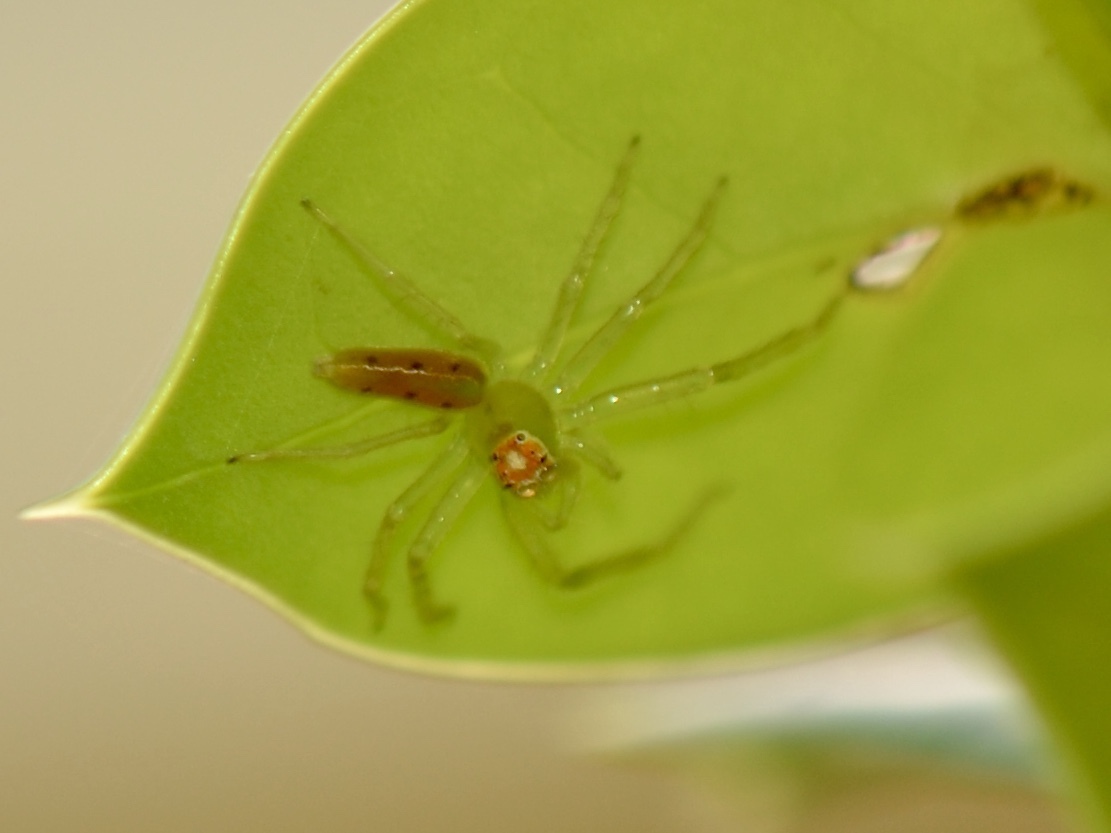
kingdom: Animalia
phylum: Arthropoda
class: Arachnida
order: Araneae
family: Salticidae
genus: Lyssomanes
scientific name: Lyssomanes viridis
